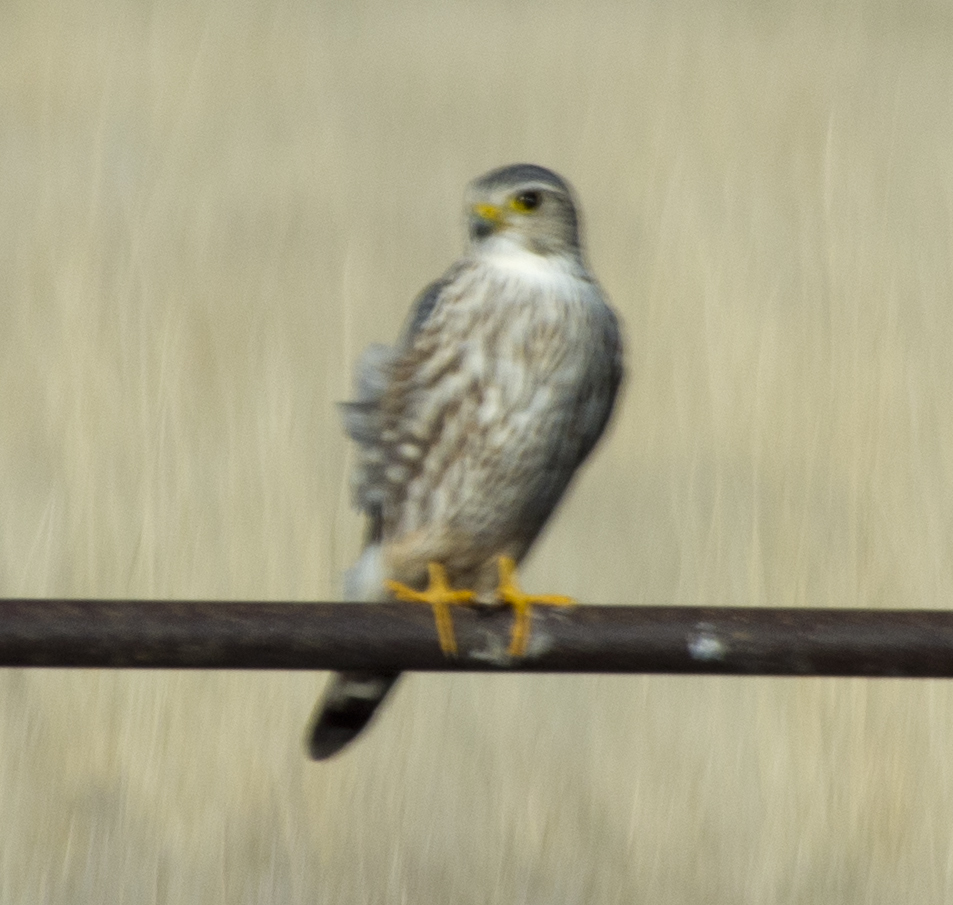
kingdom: Animalia
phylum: Chordata
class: Aves
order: Falconiformes
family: Falconidae
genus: Falco
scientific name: Falco columbarius
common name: Merlin
